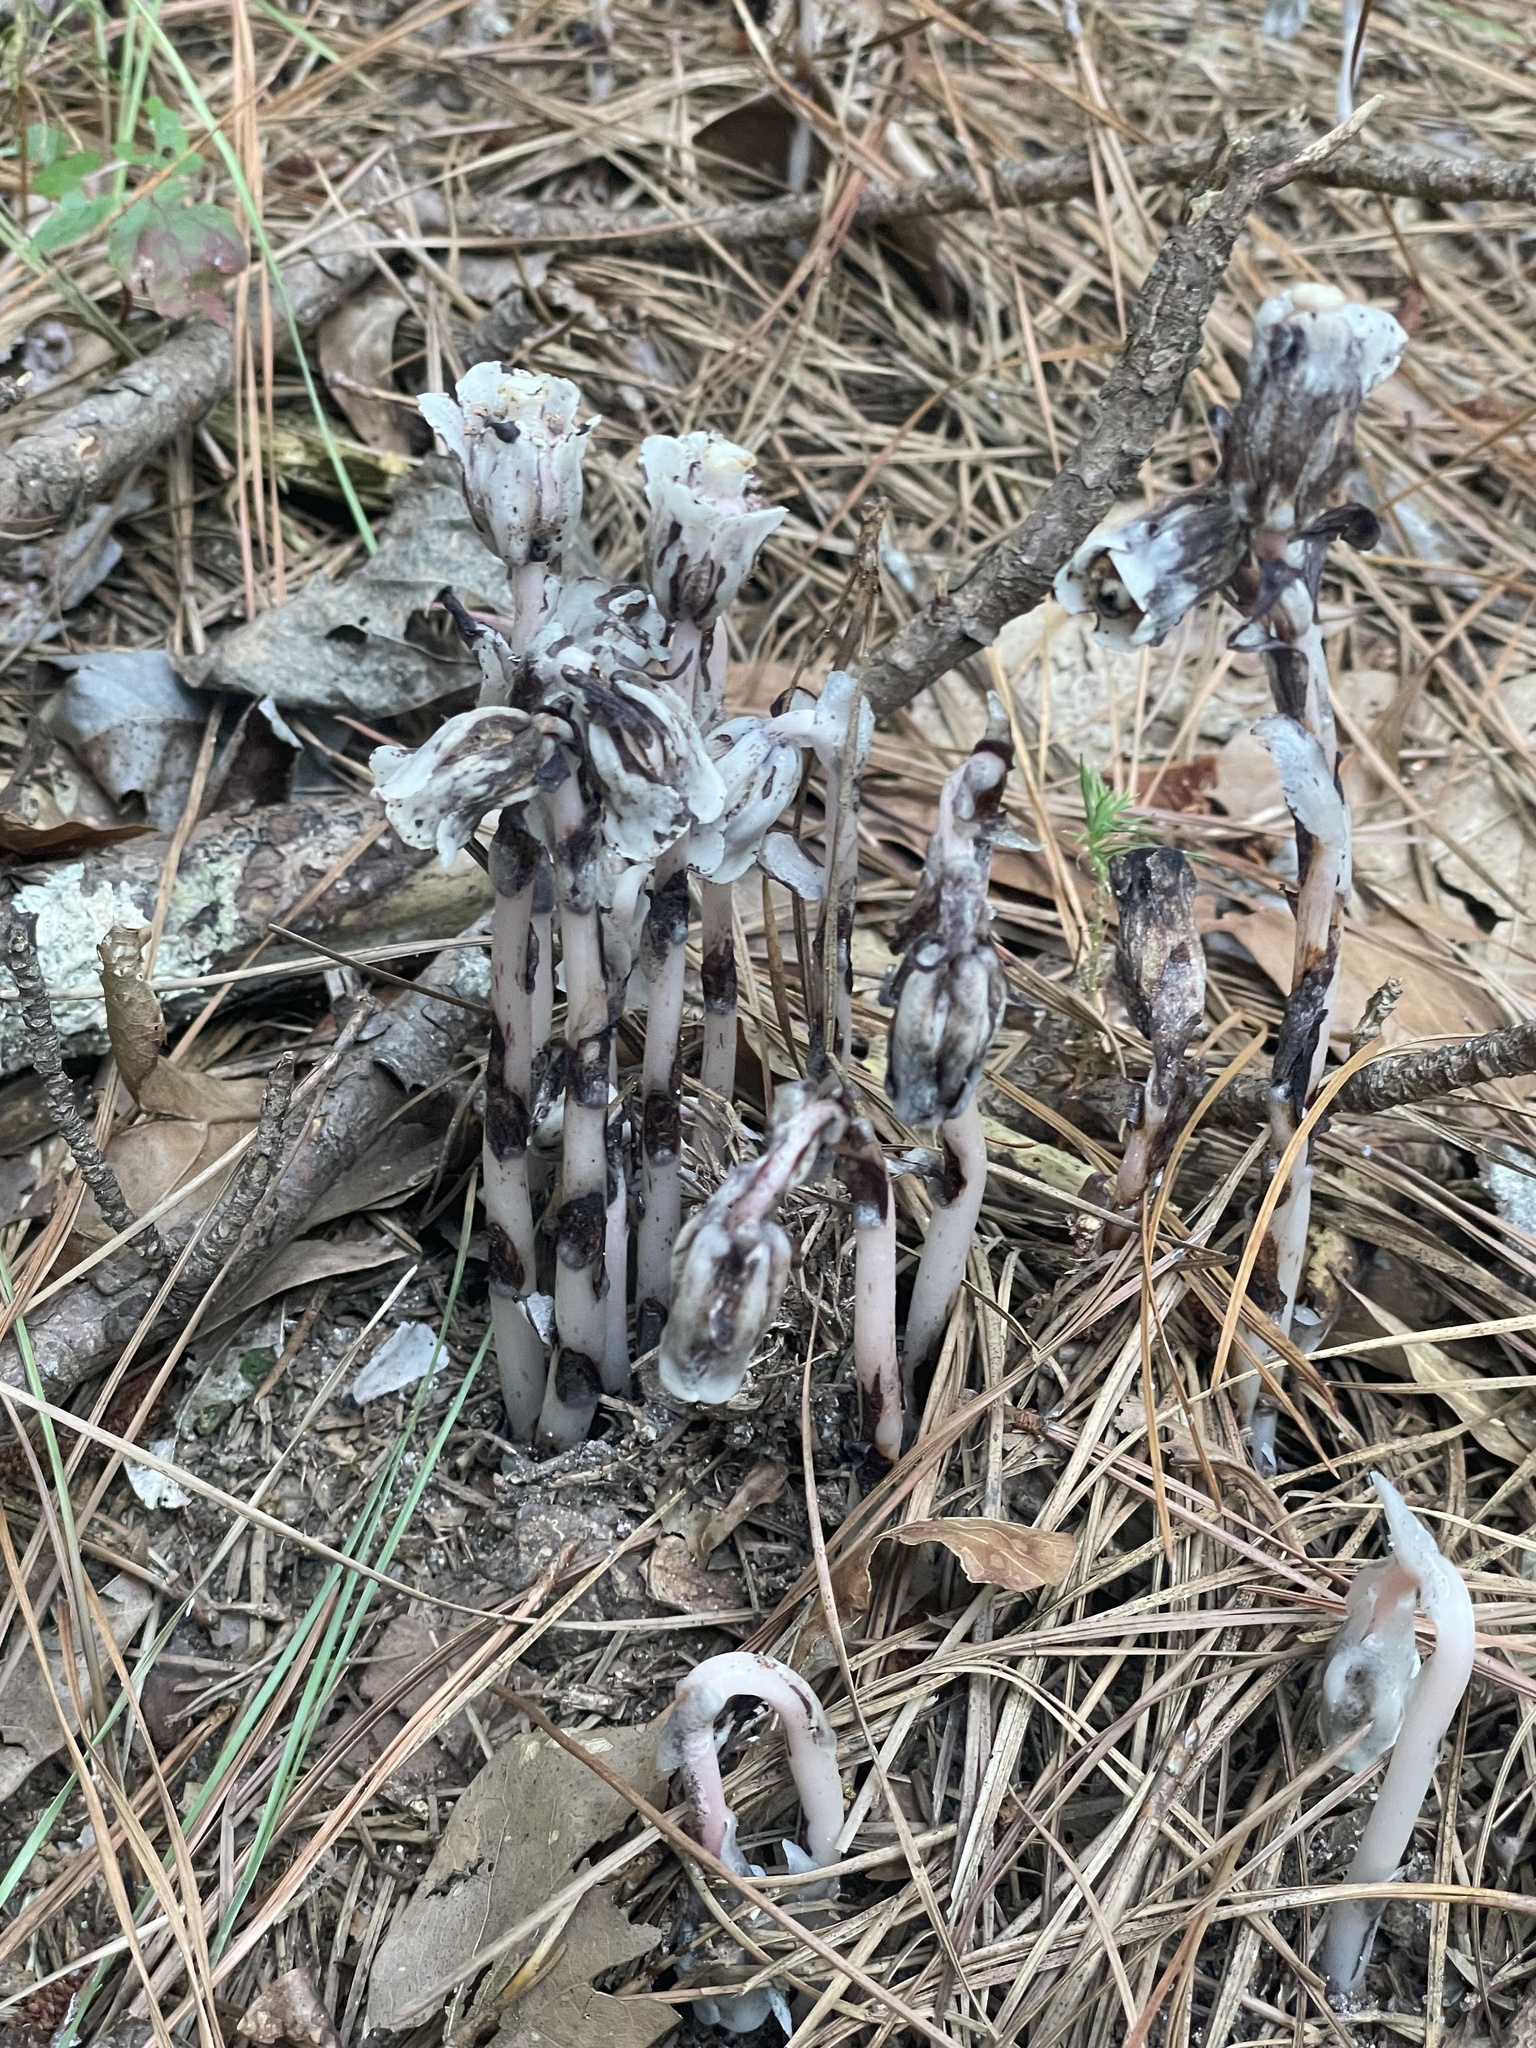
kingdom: Plantae
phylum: Tracheophyta
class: Magnoliopsida
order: Ericales
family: Ericaceae
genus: Monotropa
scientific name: Monotropa uniflora
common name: Convulsion root
